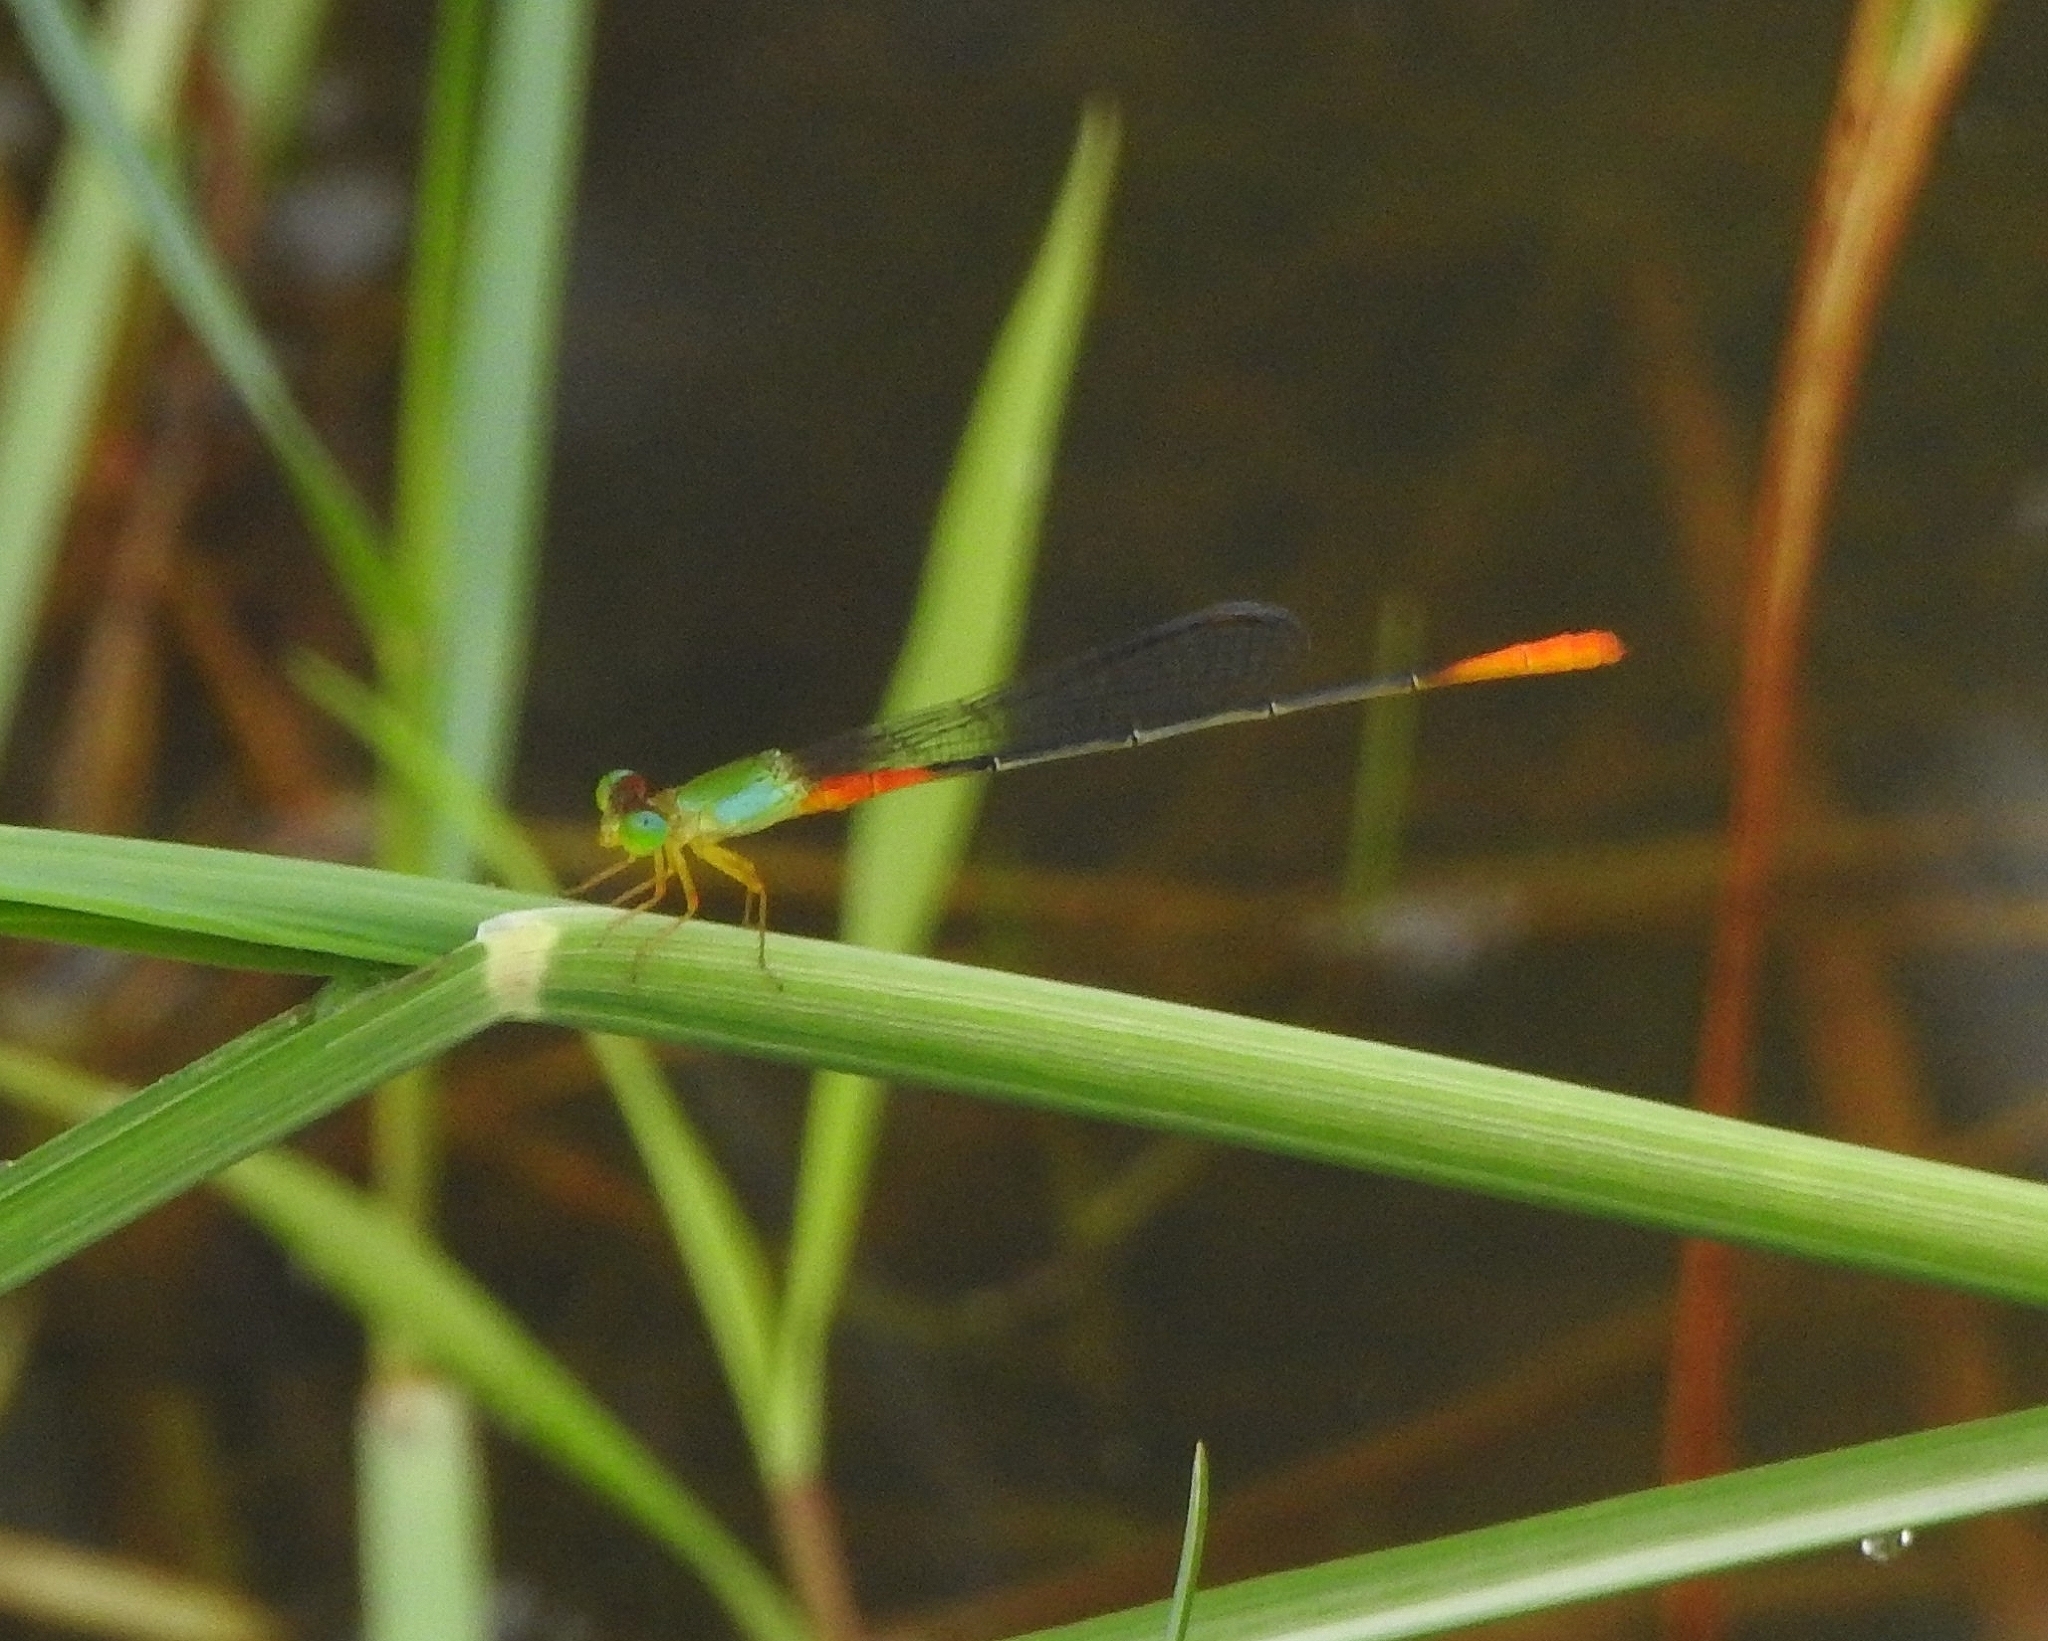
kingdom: Animalia
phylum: Arthropoda
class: Insecta
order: Odonata
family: Coenagrionidae
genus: Ceriagrion
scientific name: Ceriagrion cerinorubellum
